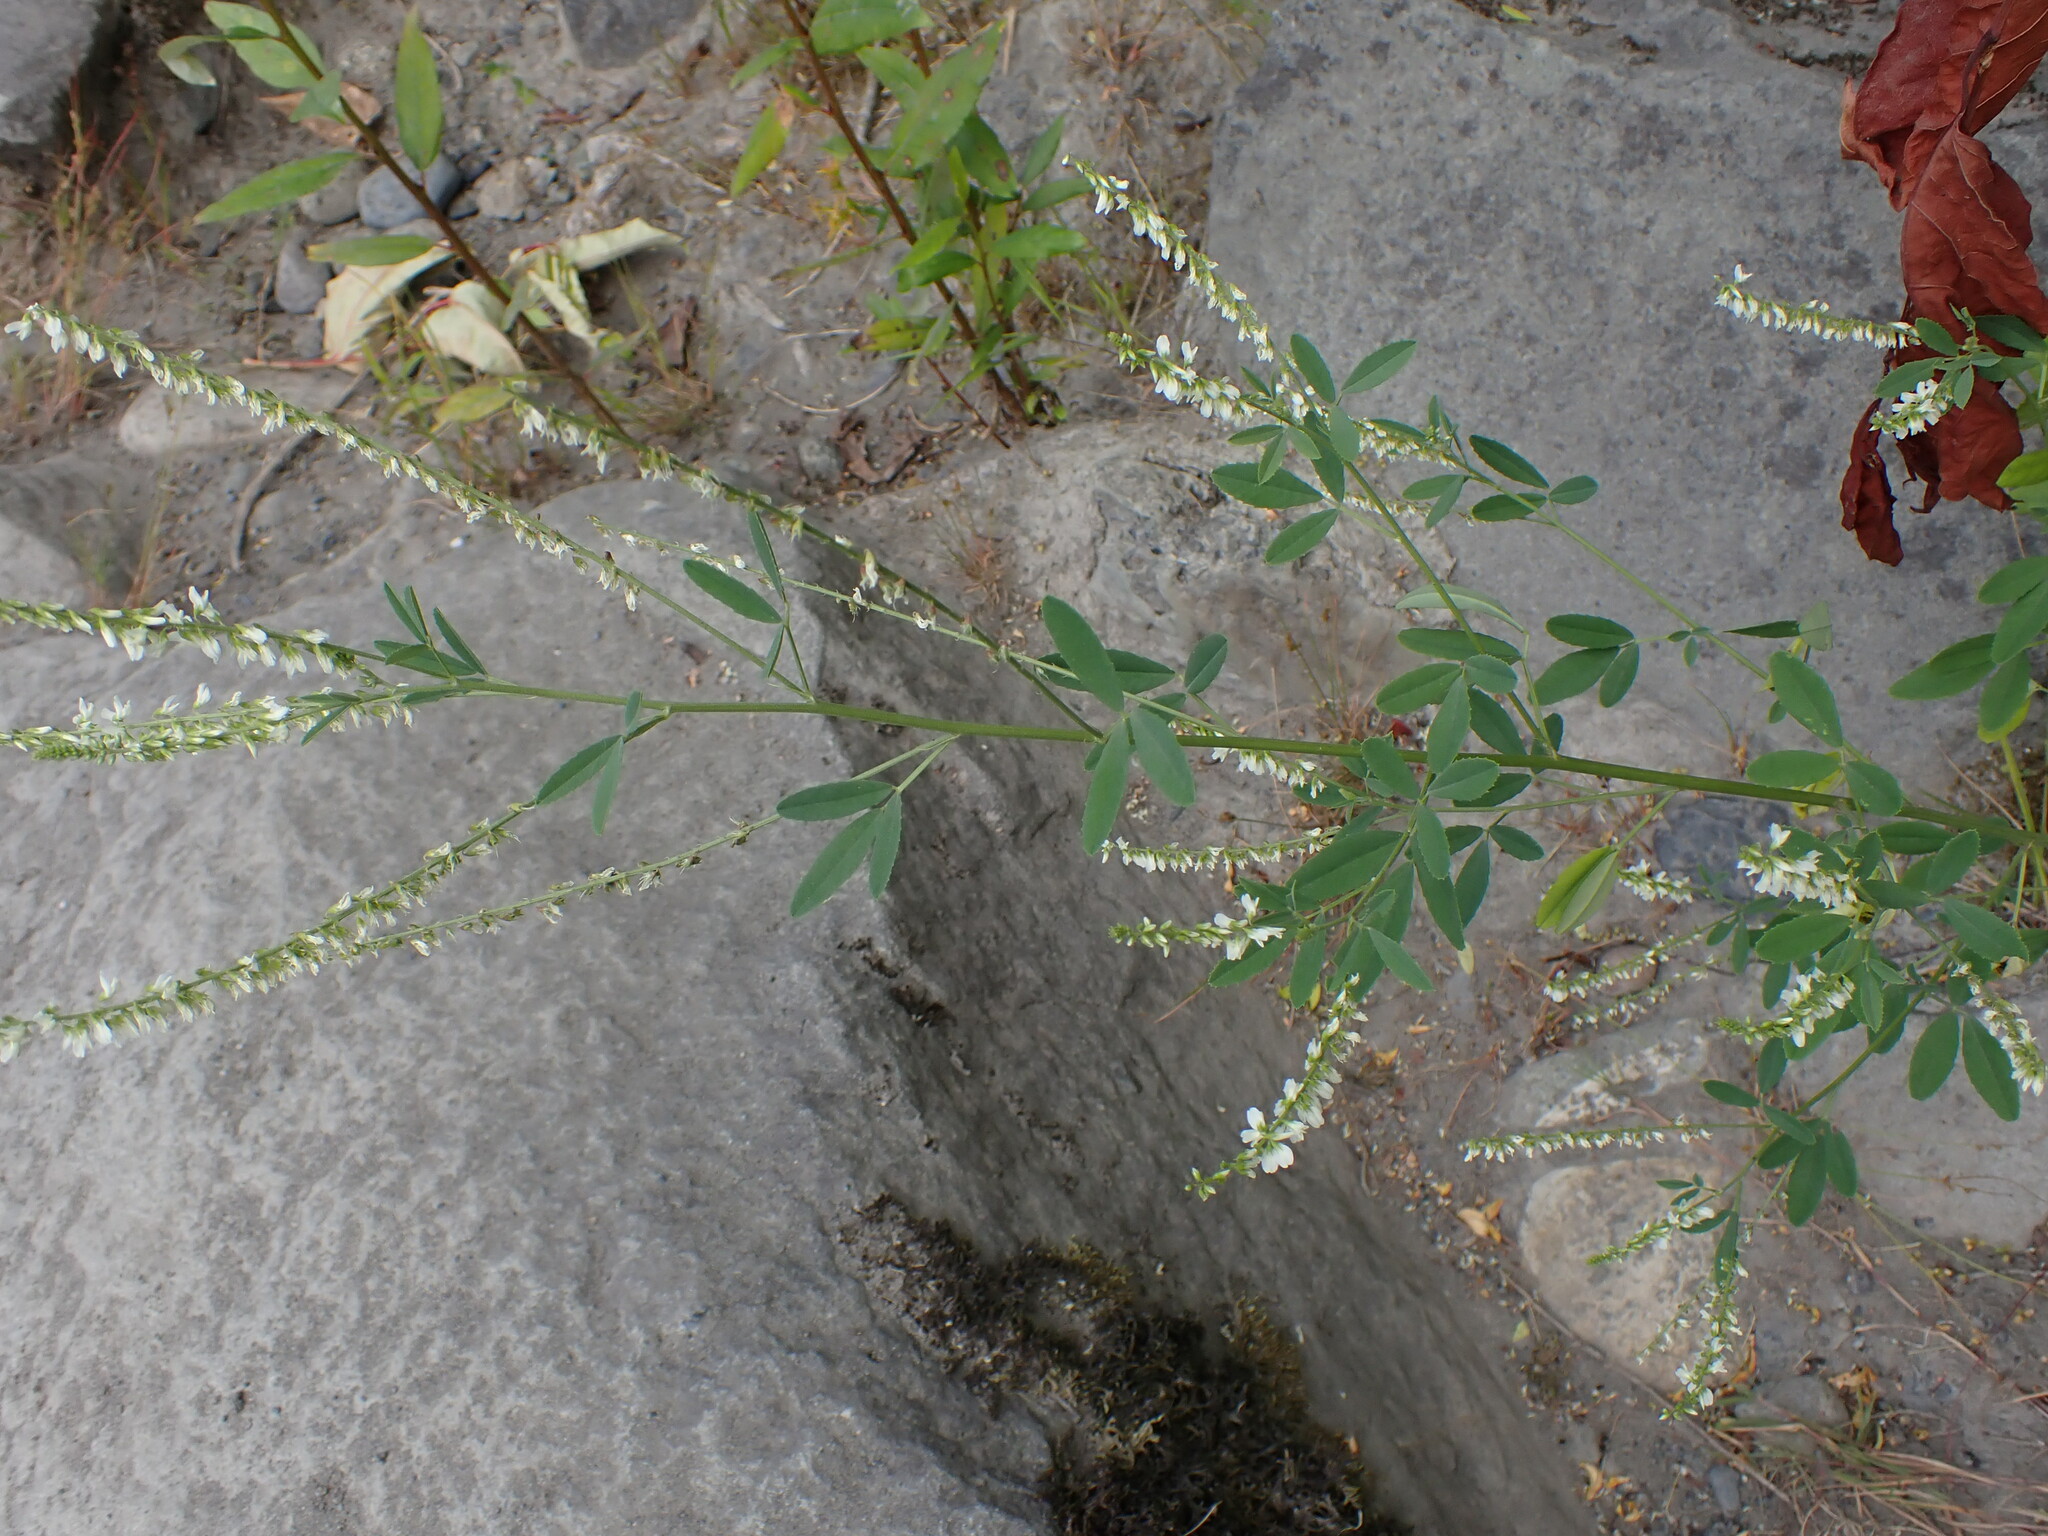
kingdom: Plantae
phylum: Tracheophyta
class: Magnoliopsida
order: Fabales
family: Fabaceae
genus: Melilotus
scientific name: Melilotus albus
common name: White melilot
